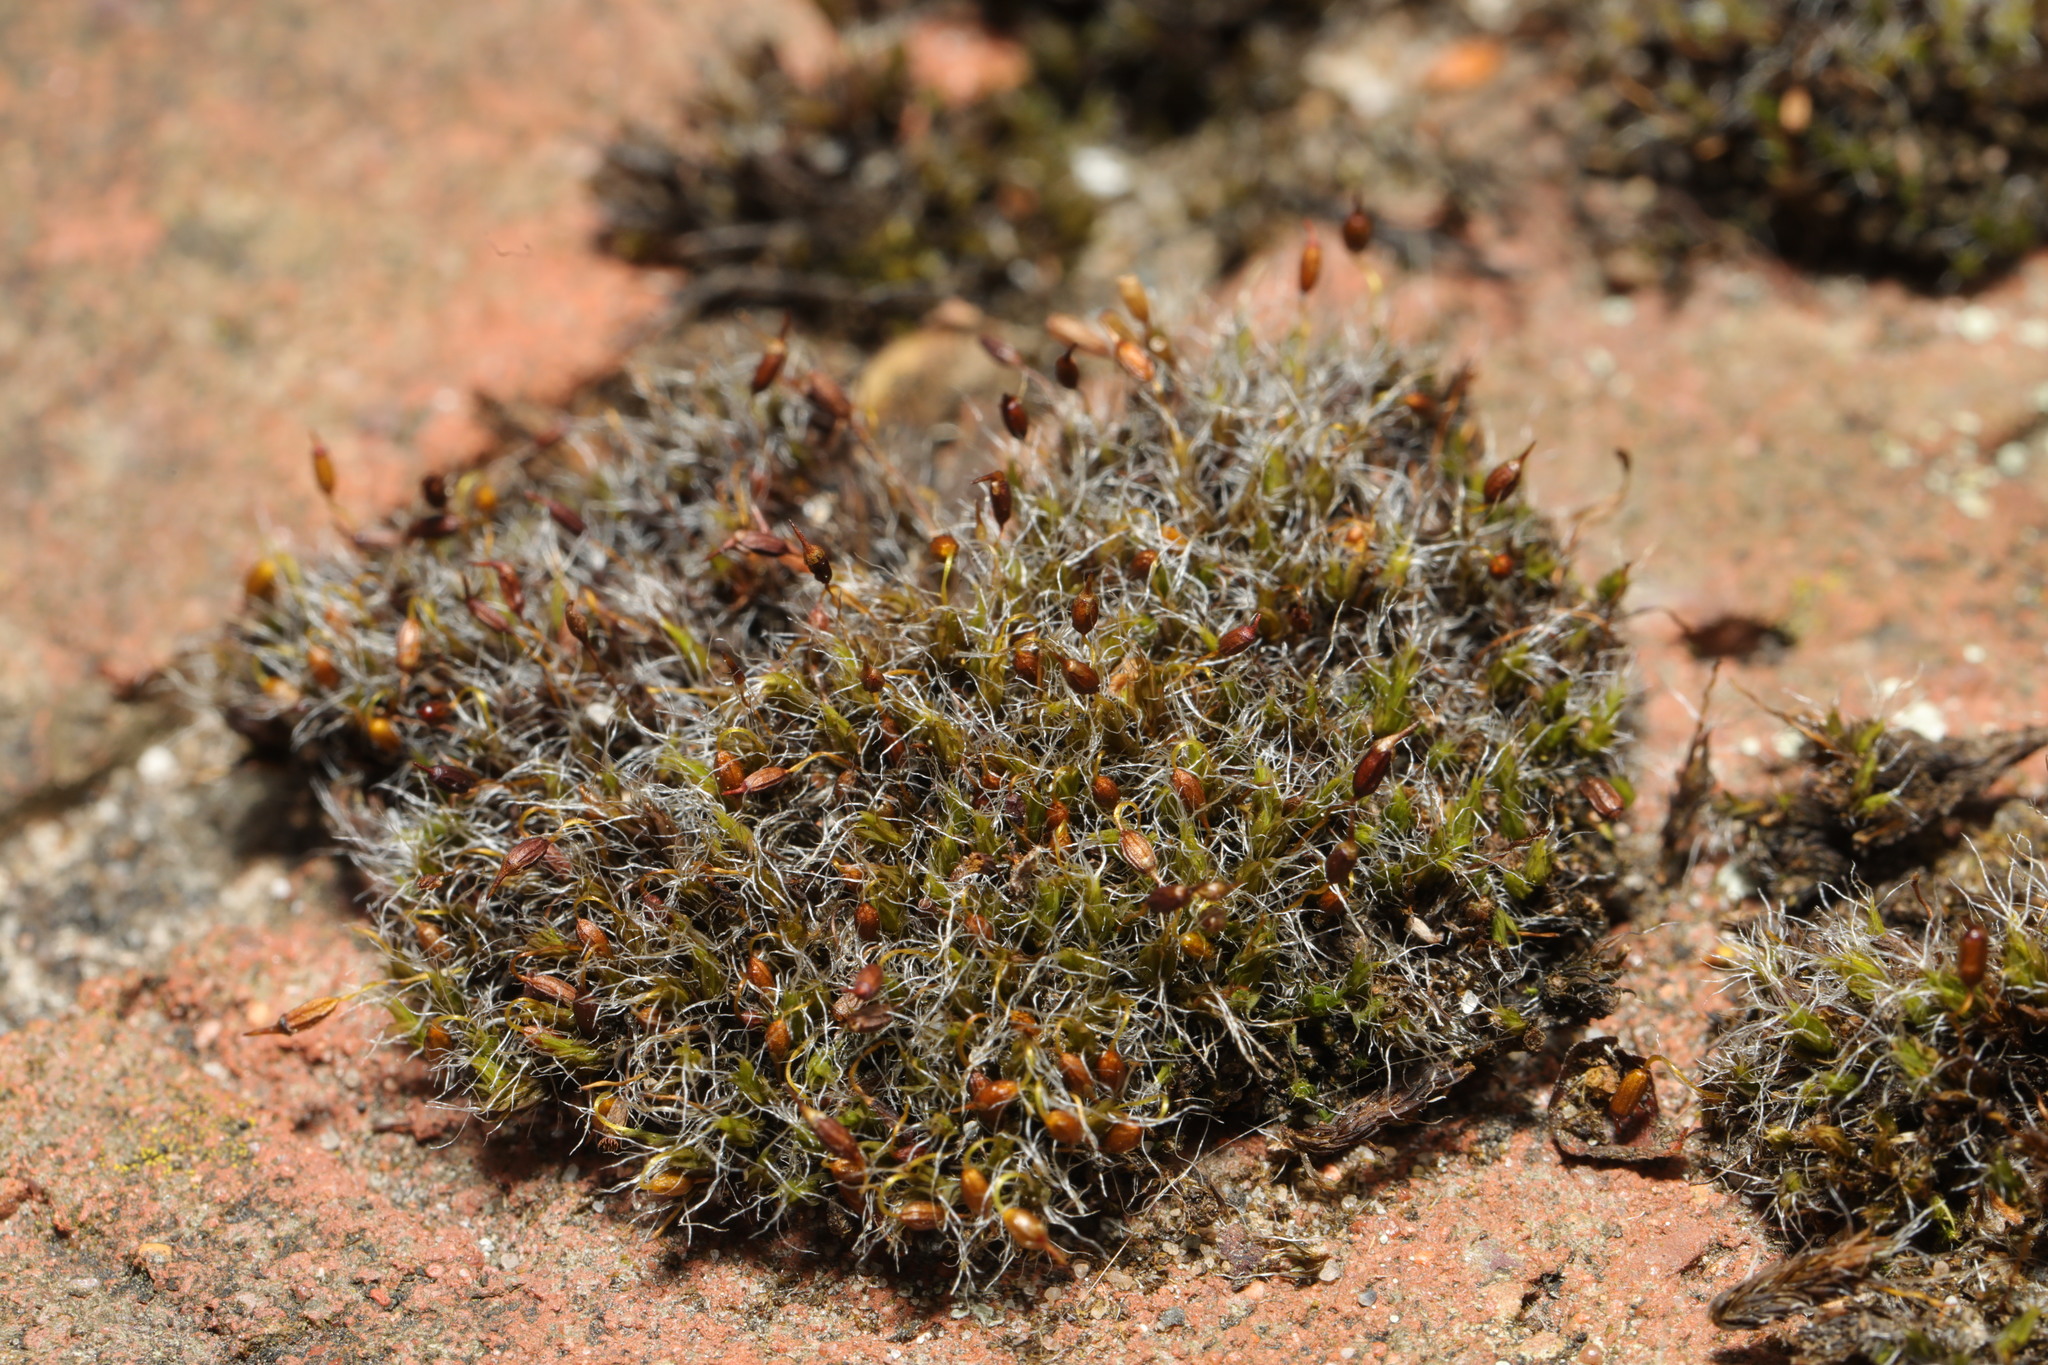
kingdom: Plantae
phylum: Bryophyta
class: Bryopsida
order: Grimmiales
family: Grimmiaceae
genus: Grimmia
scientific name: Grimmia pulvinata
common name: Grey-cushioned grimmia
